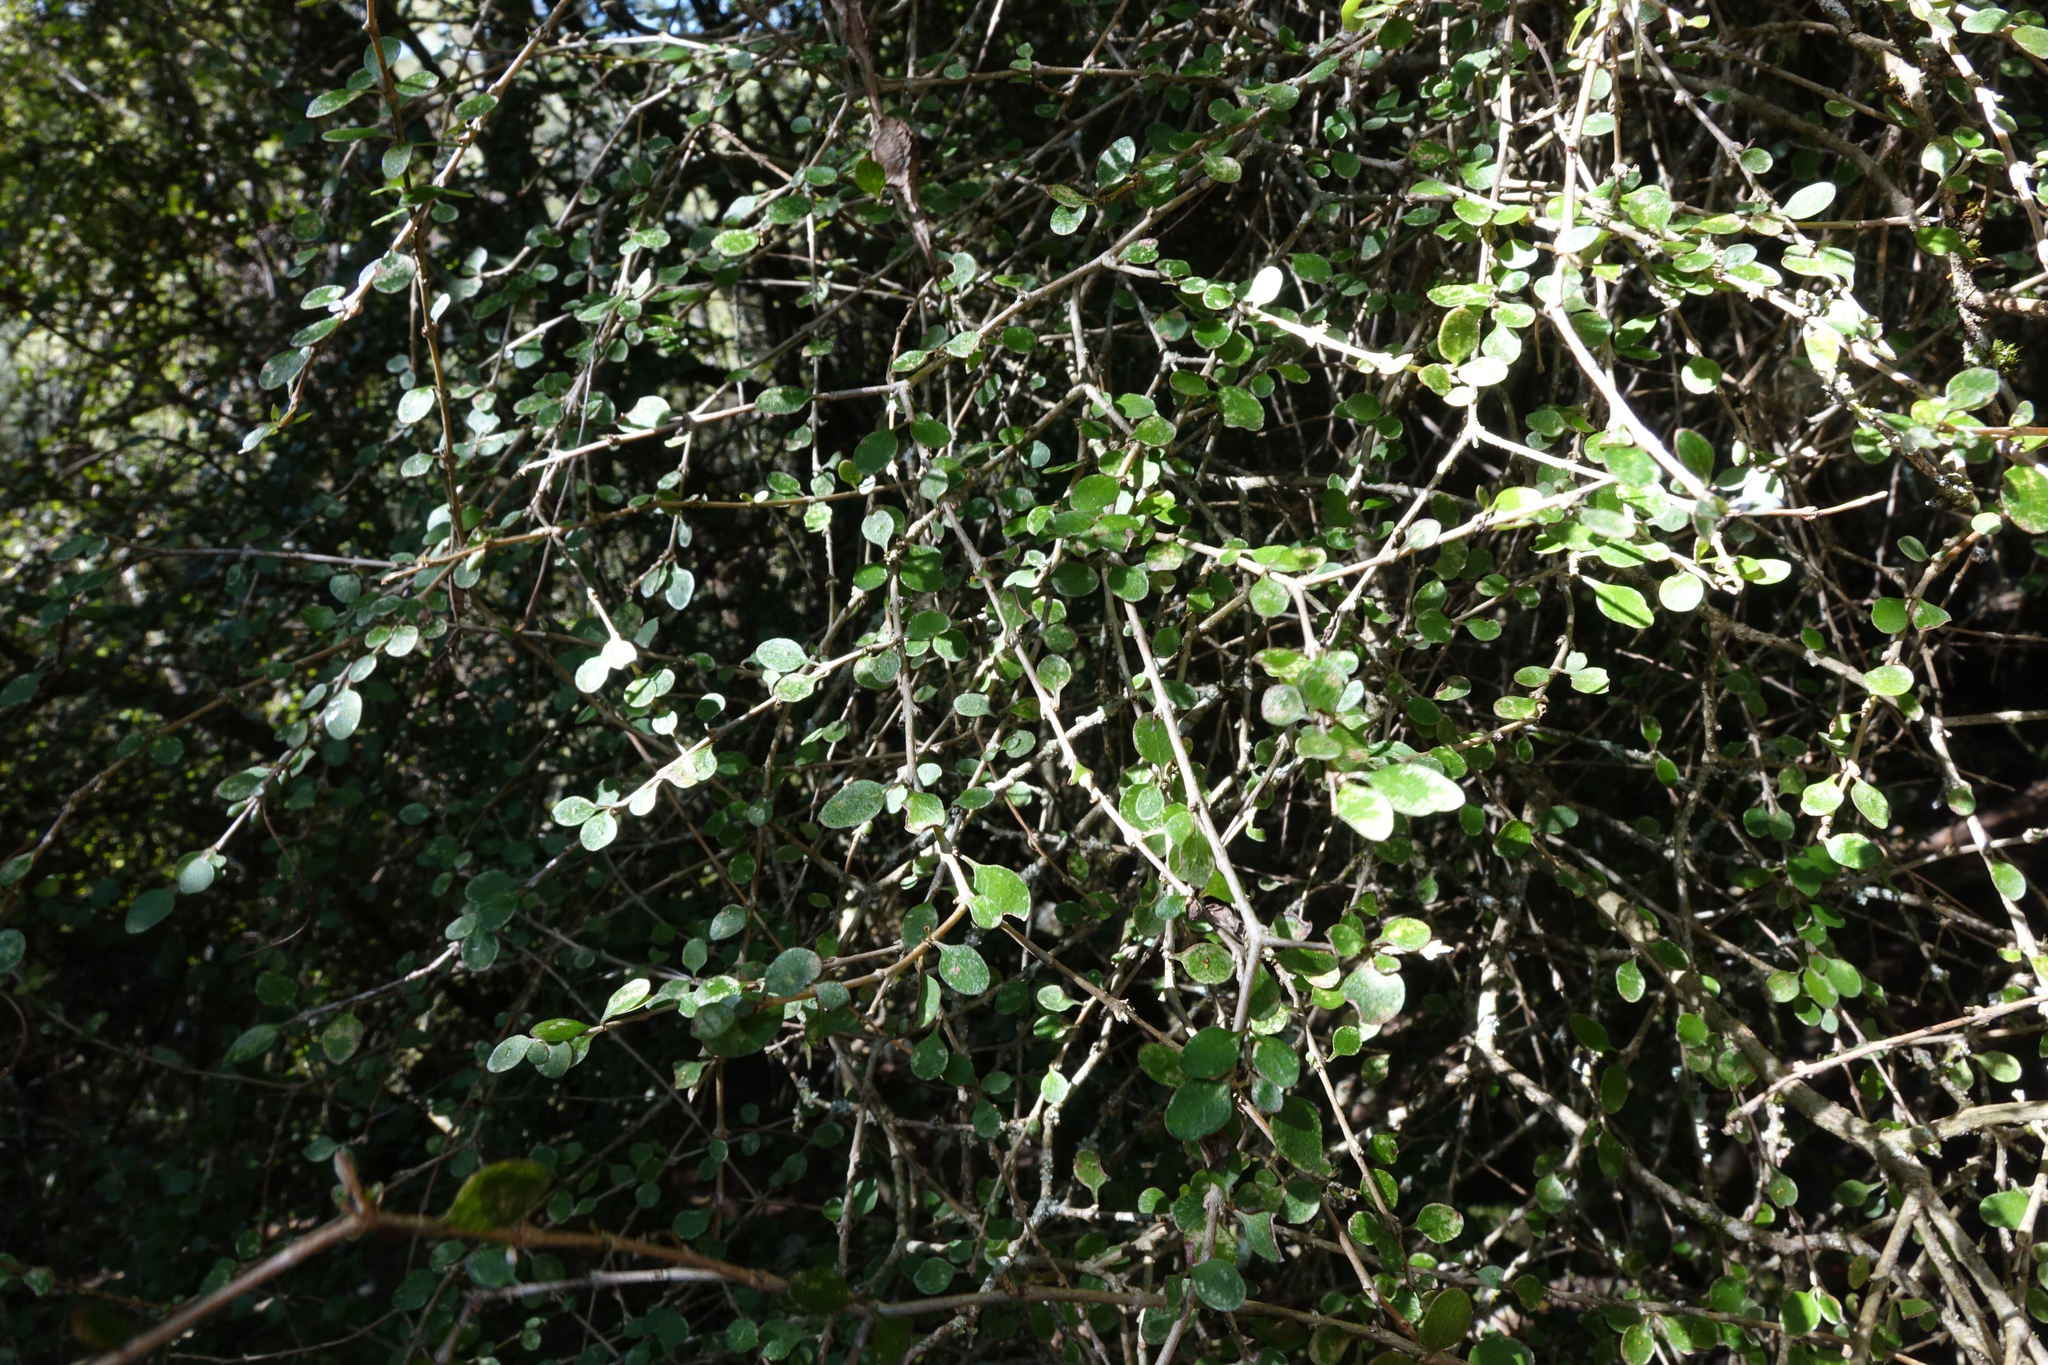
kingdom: Plantae
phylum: Tracheophyta
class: Magnoliopsida
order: Gentianales
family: Rubiaceae
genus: Coprosma
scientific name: Coprosma virescens
